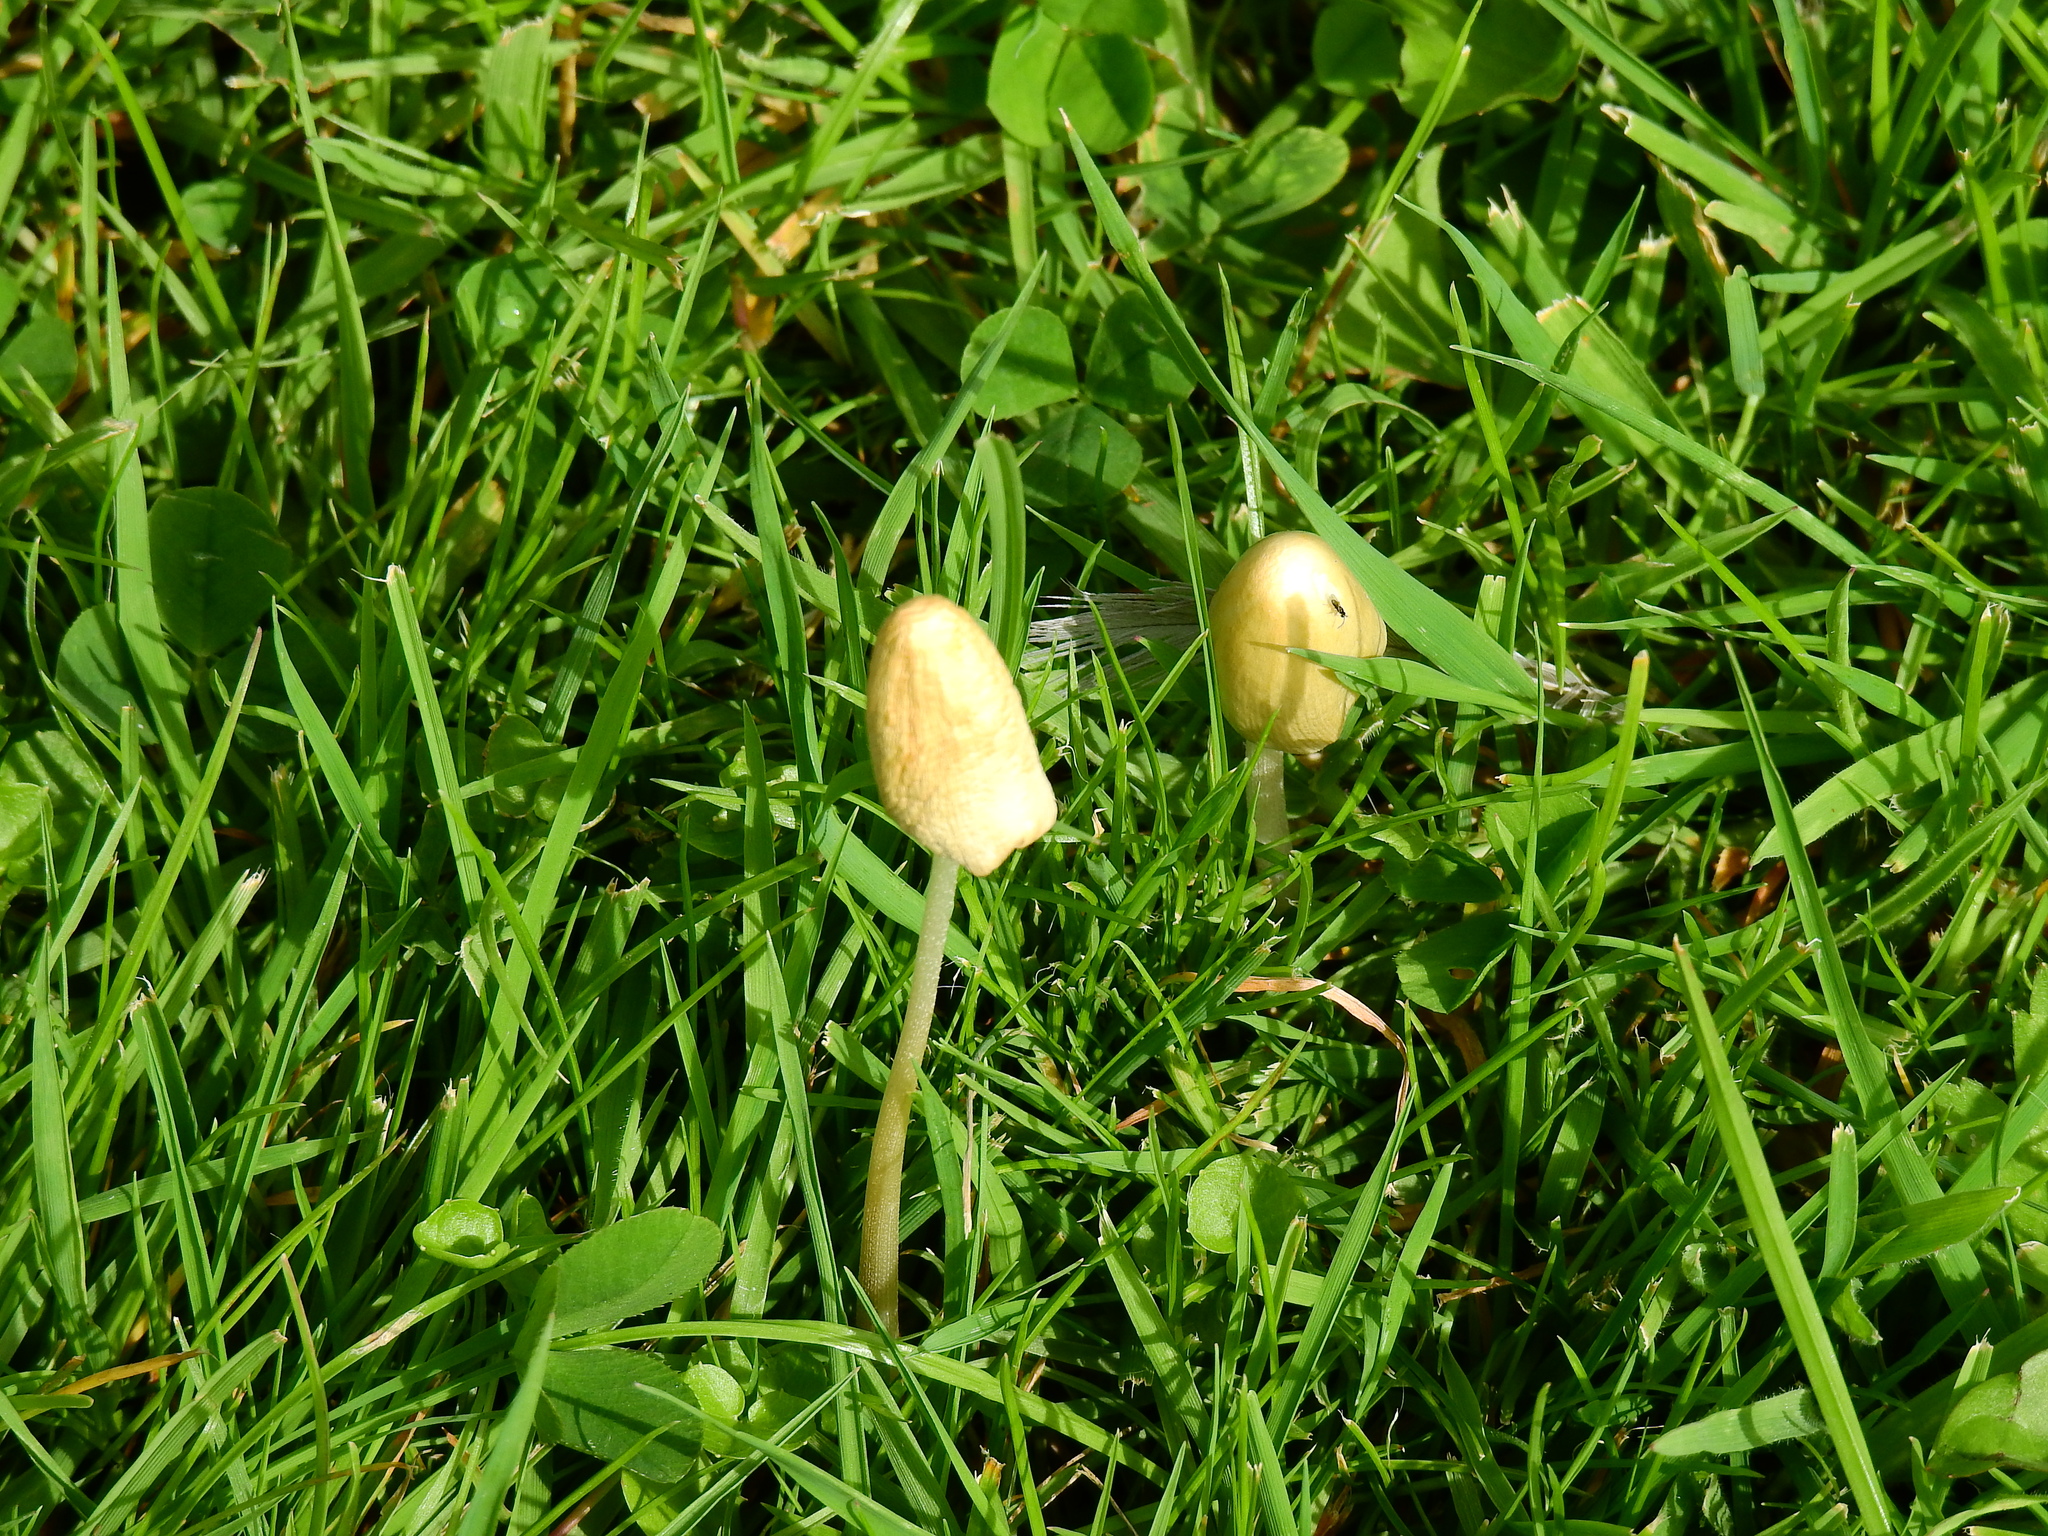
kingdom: Fungi
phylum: Basidiomycota
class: Agaricomycetes
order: Agaricales
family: Bolbitiaceae
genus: Conocybe
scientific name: Conocybe apala
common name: Milky conecap
